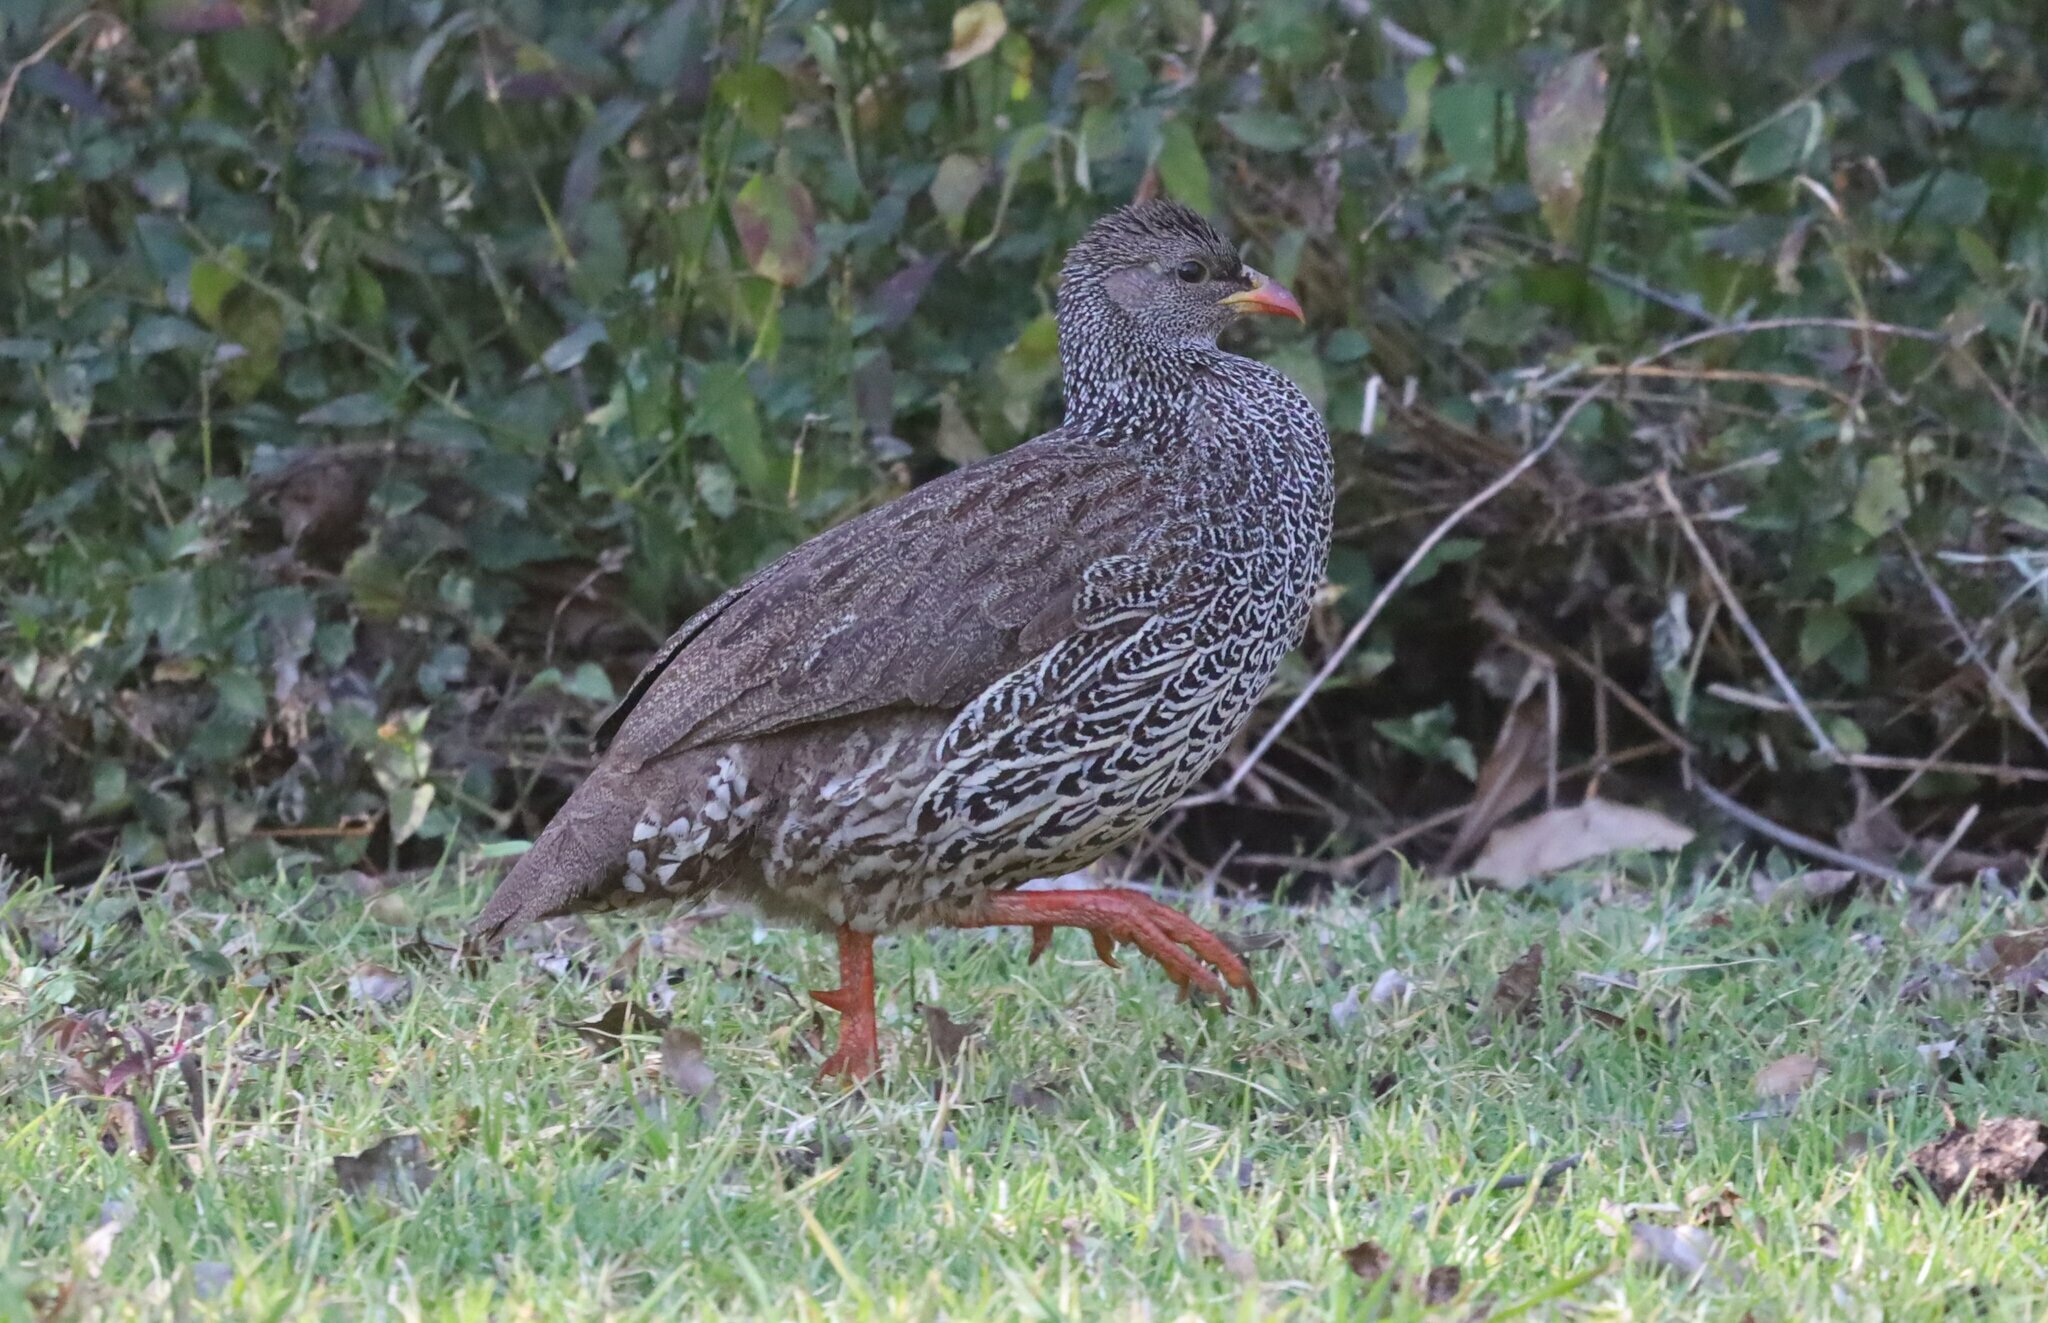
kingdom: Animalia
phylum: Chordata
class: Aves
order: Galliformes
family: Phasianidae
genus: Pternistis
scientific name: Pternistis natalensis
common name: Natal spurfowl
